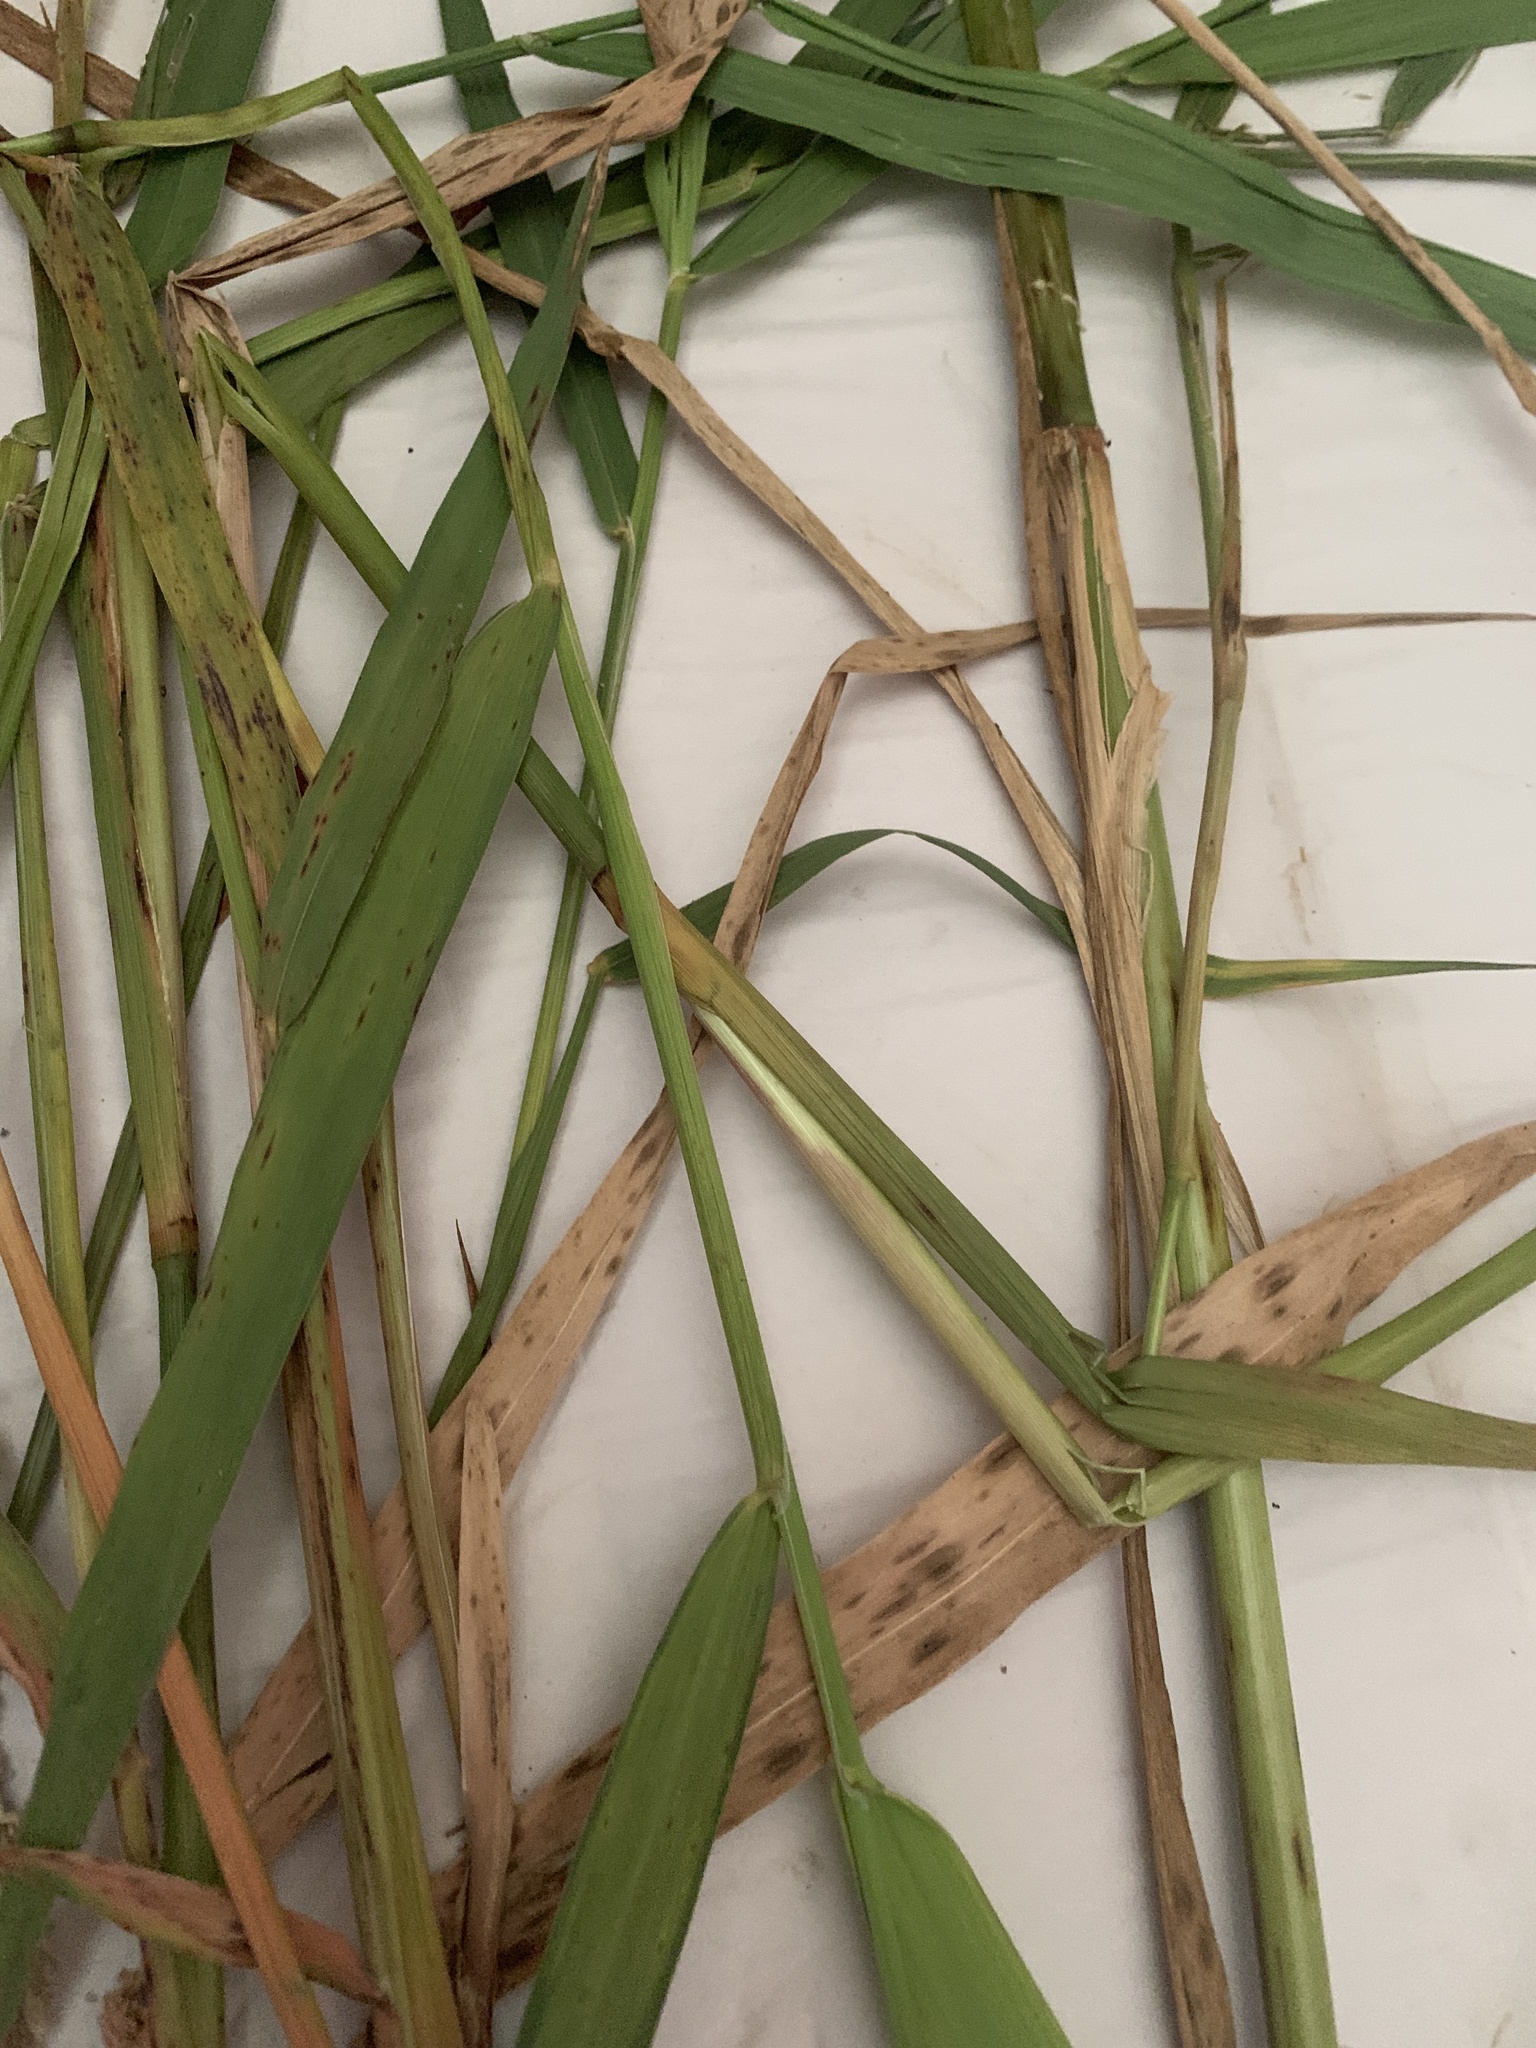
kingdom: Plantae
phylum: Tracheophyta
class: Liliopsida
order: Poales
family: Poaceae
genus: Phalaris
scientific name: Phalaris arundinacea
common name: Reed canary-grass
